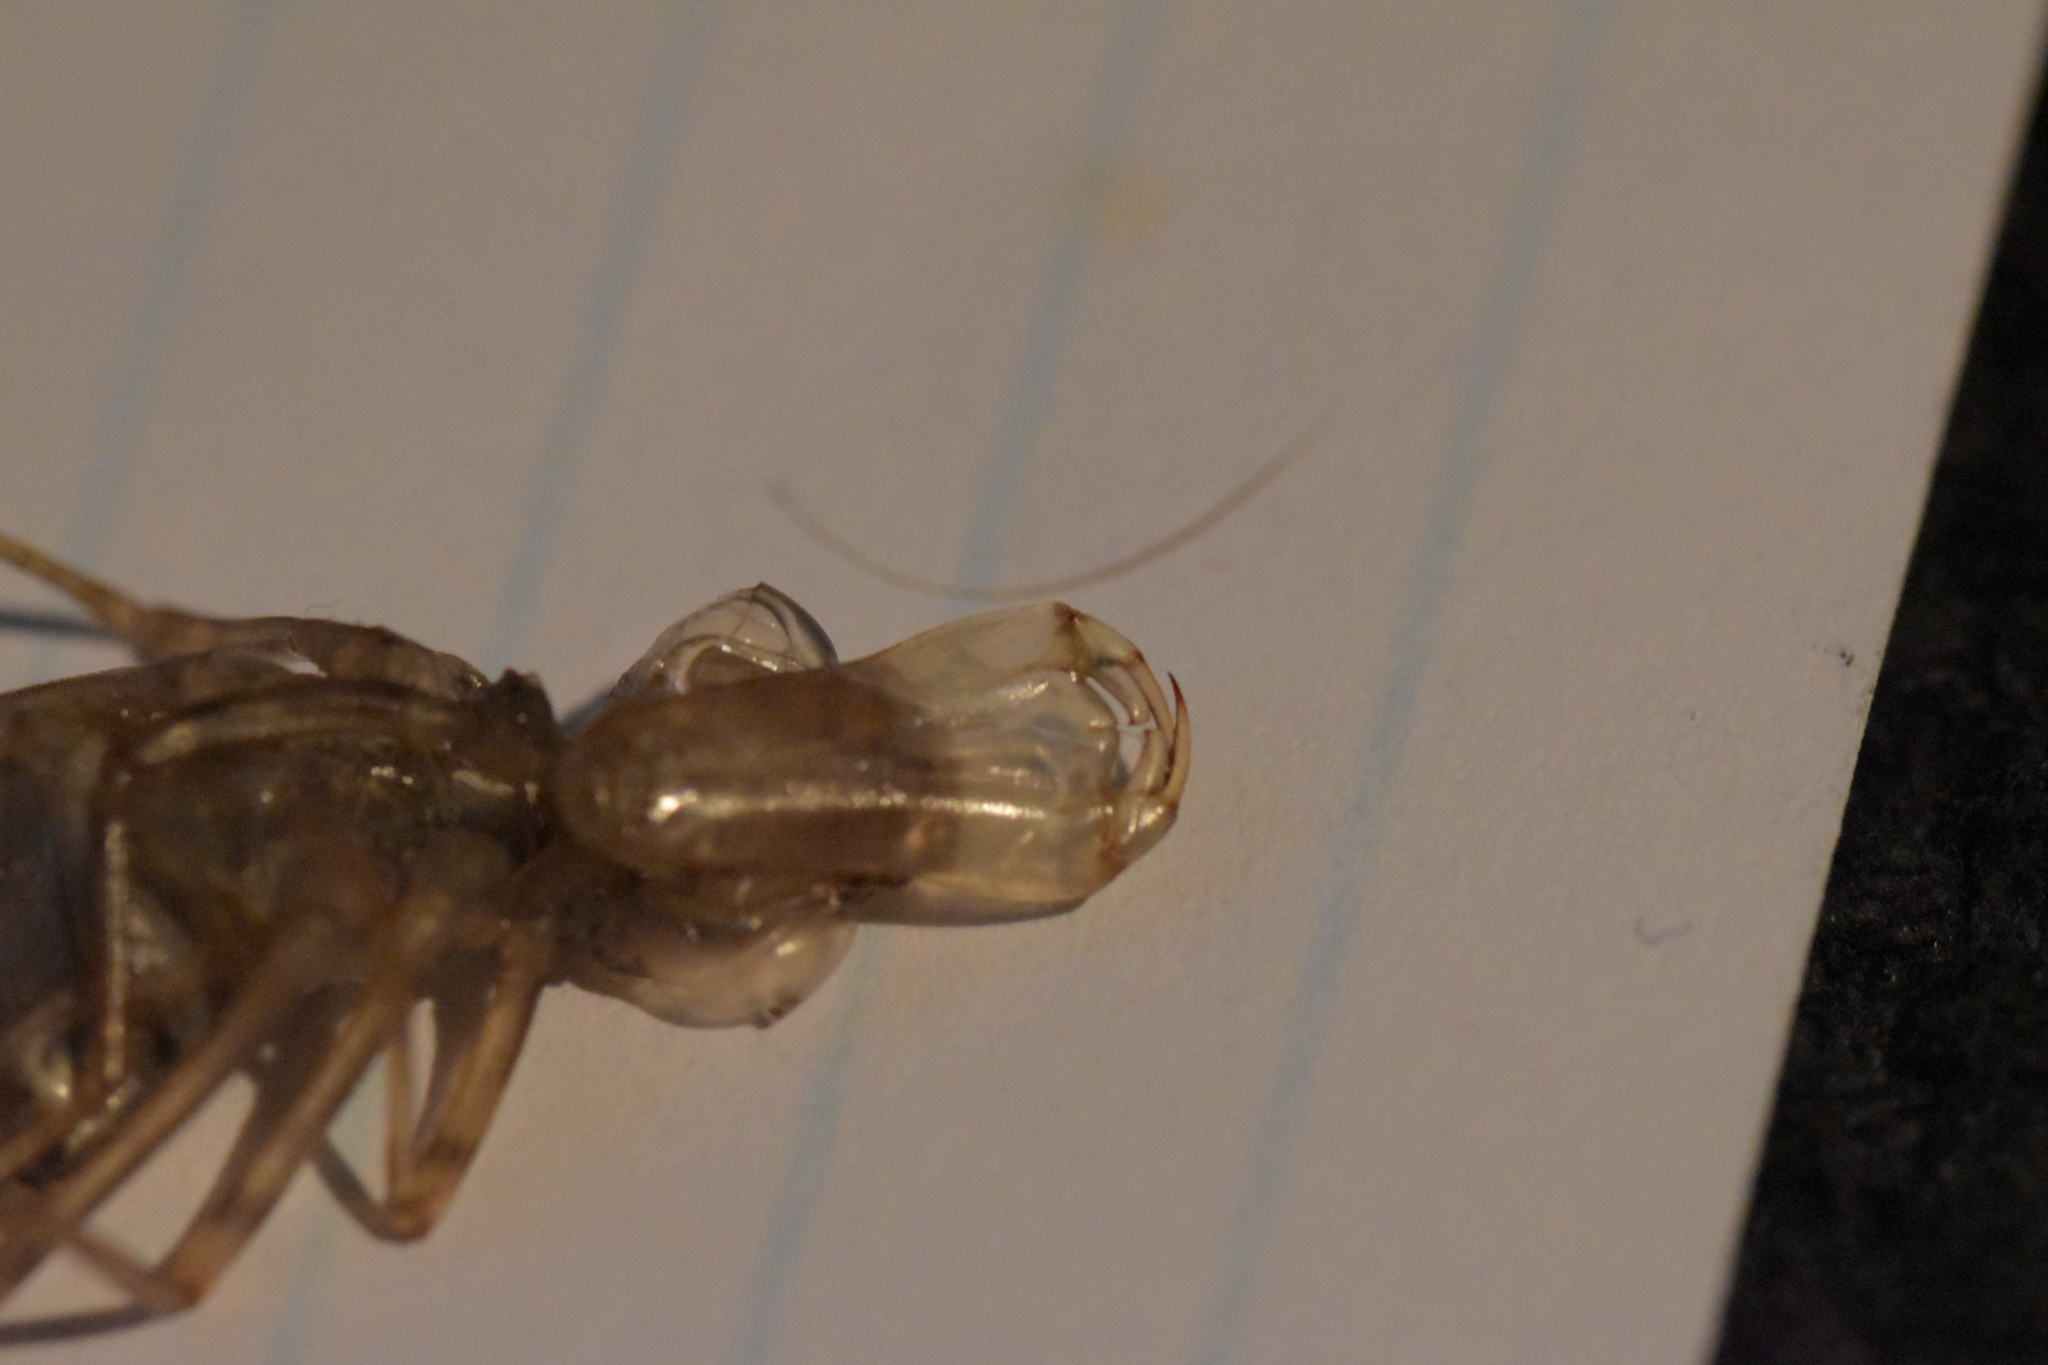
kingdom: Animalia
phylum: Arthropoda
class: Insecta
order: Odonata
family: Aeshnidae
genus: Anax
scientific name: Anax imperator
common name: Emperor dragonfly
